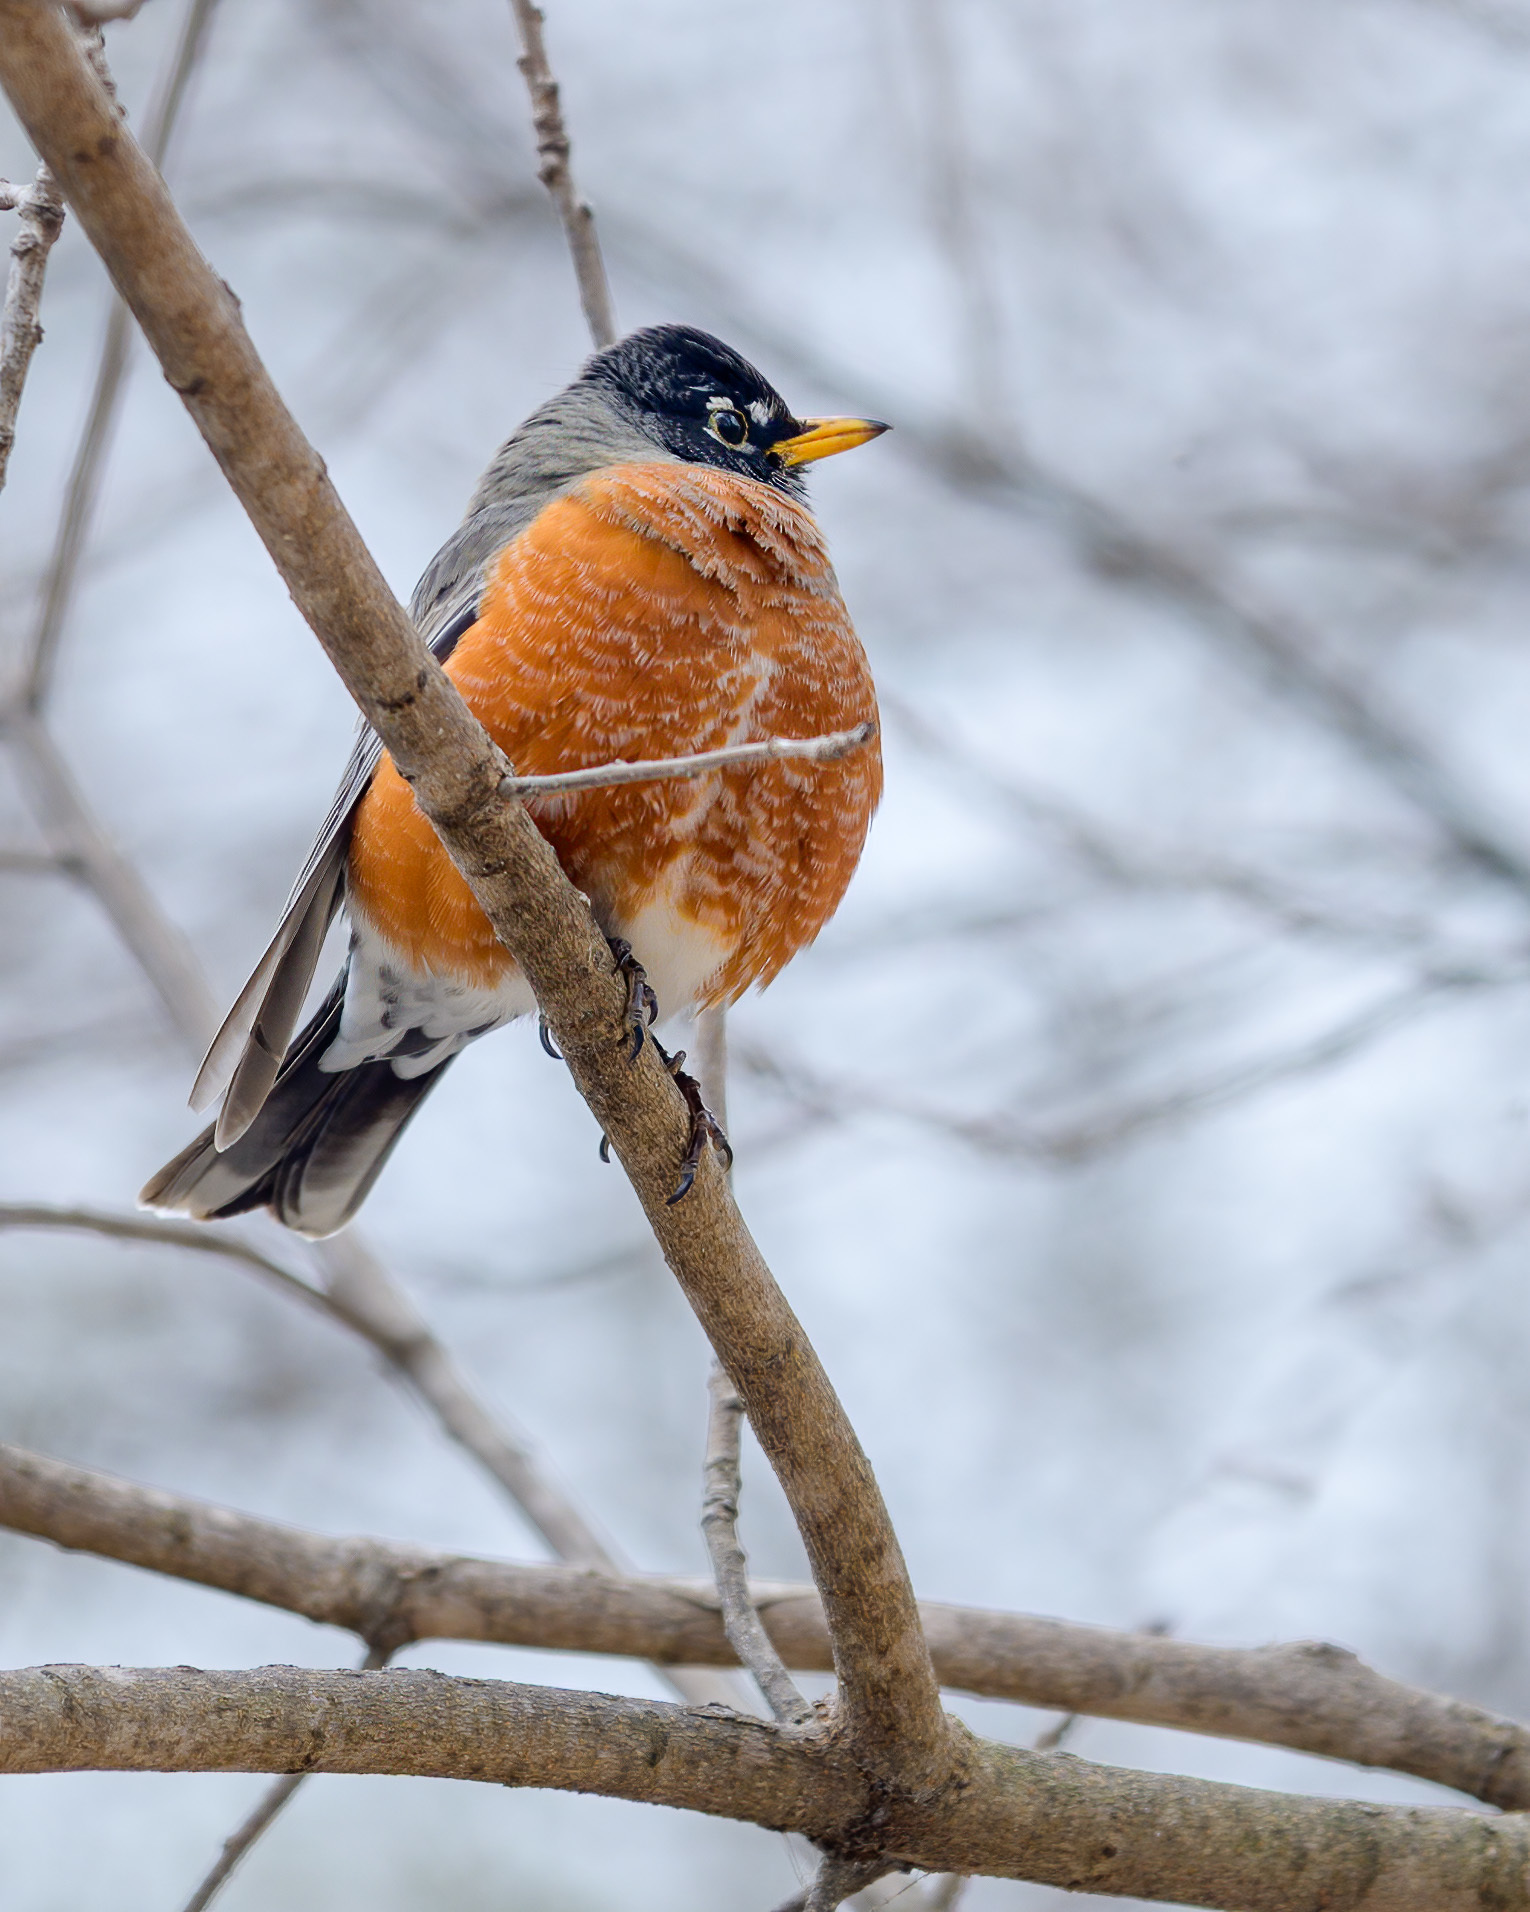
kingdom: Animalia
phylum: Chordata
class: Aves
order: Passeriformes
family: Turdidae
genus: Turdus
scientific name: Turdus migratorius
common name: American robin
